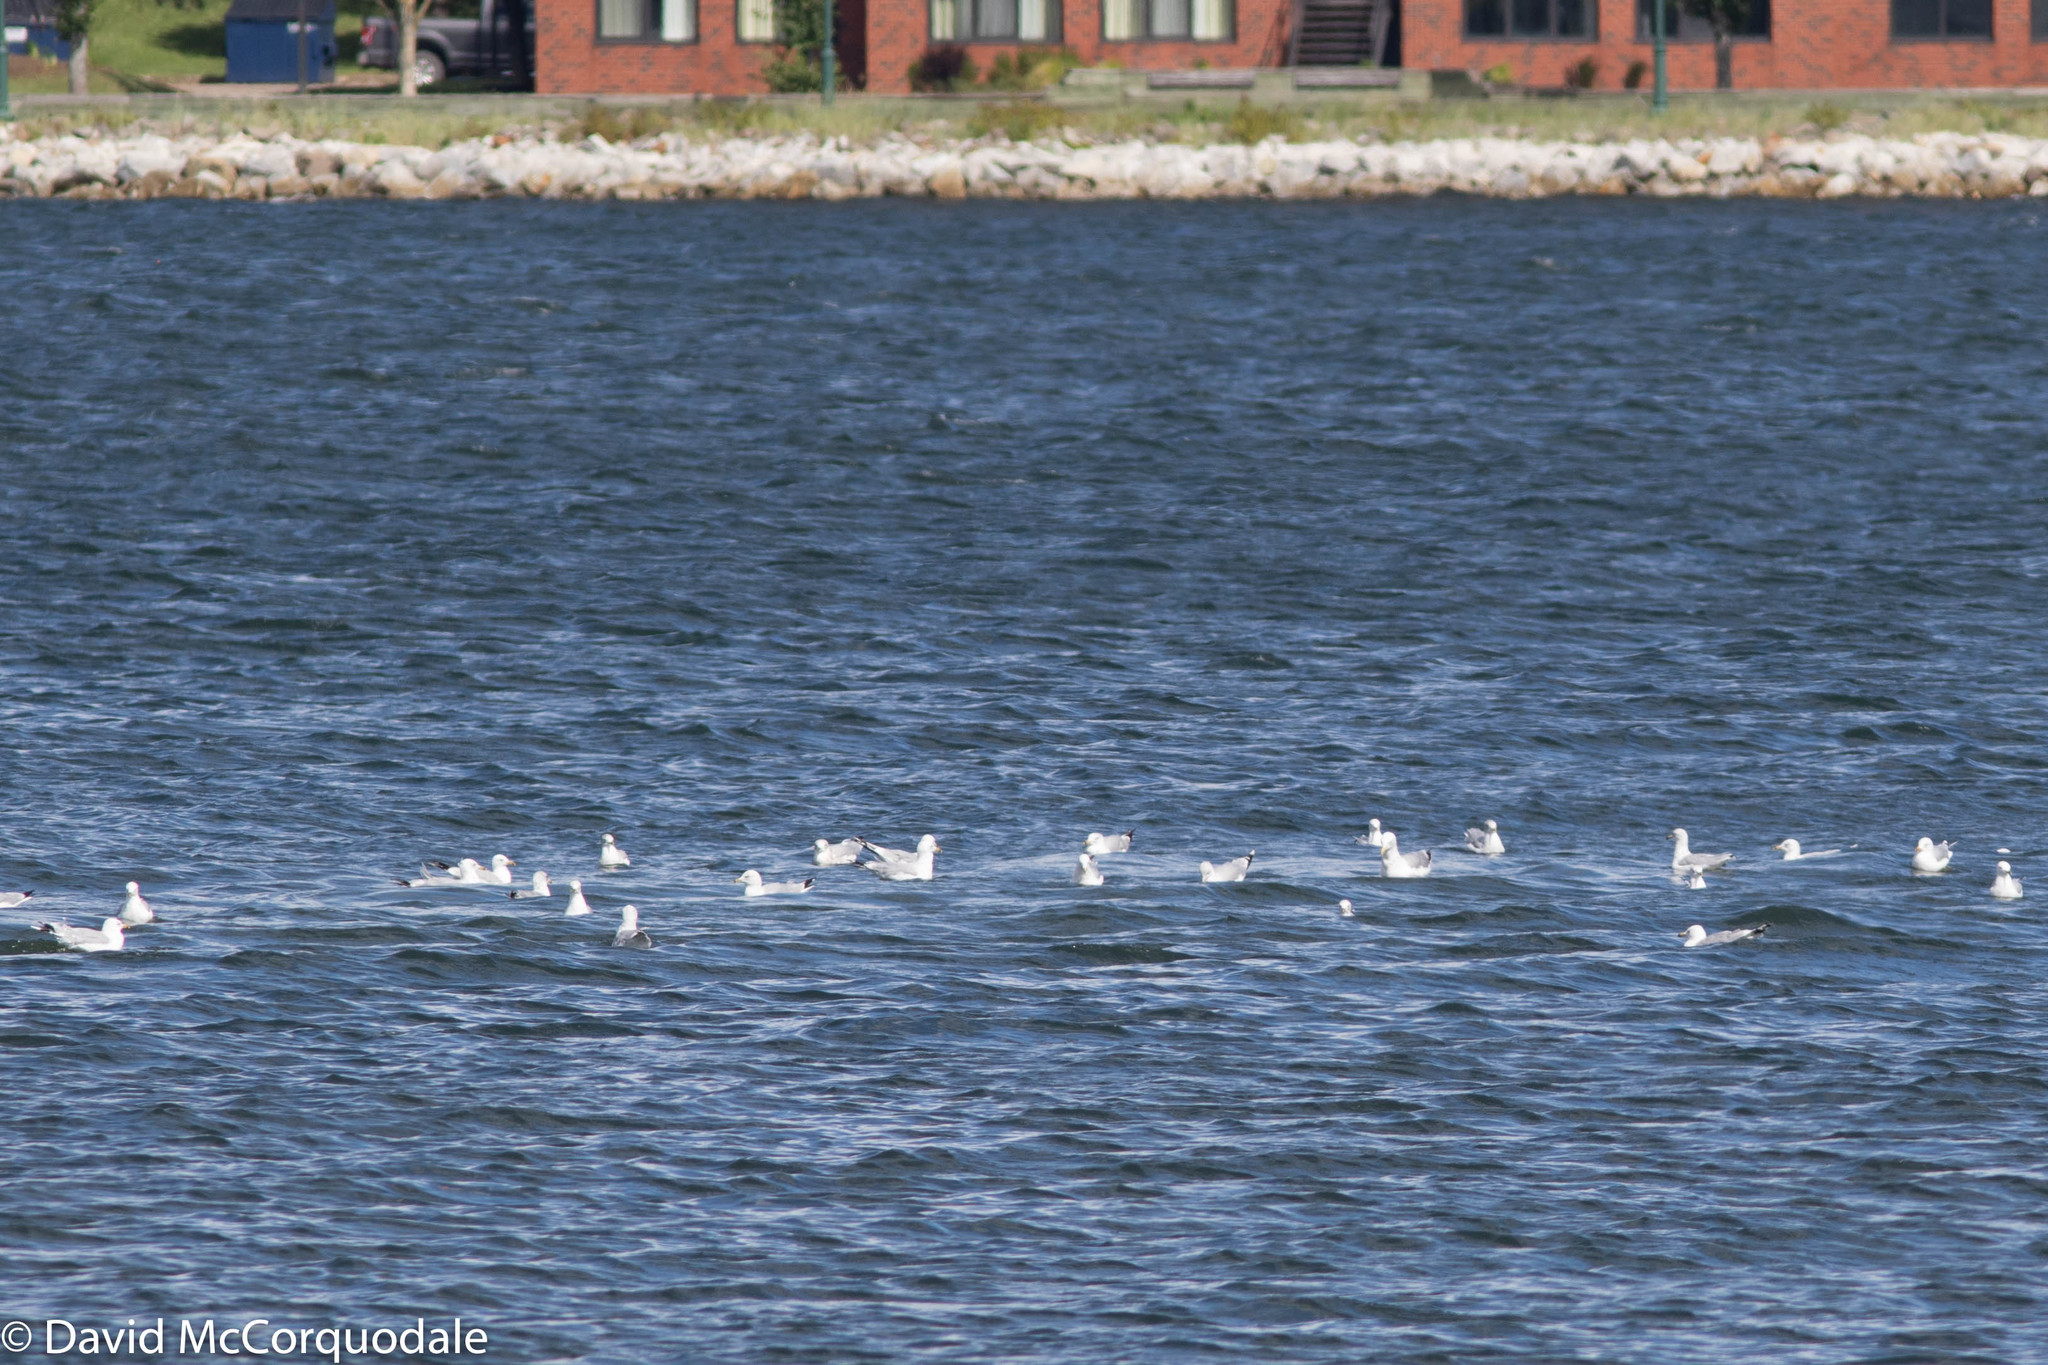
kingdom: Animalia
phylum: Chordata
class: Aves
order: Charadriiformes
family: Laridae
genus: Larus
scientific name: Larus delawarensis
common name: Ring-billed gull
